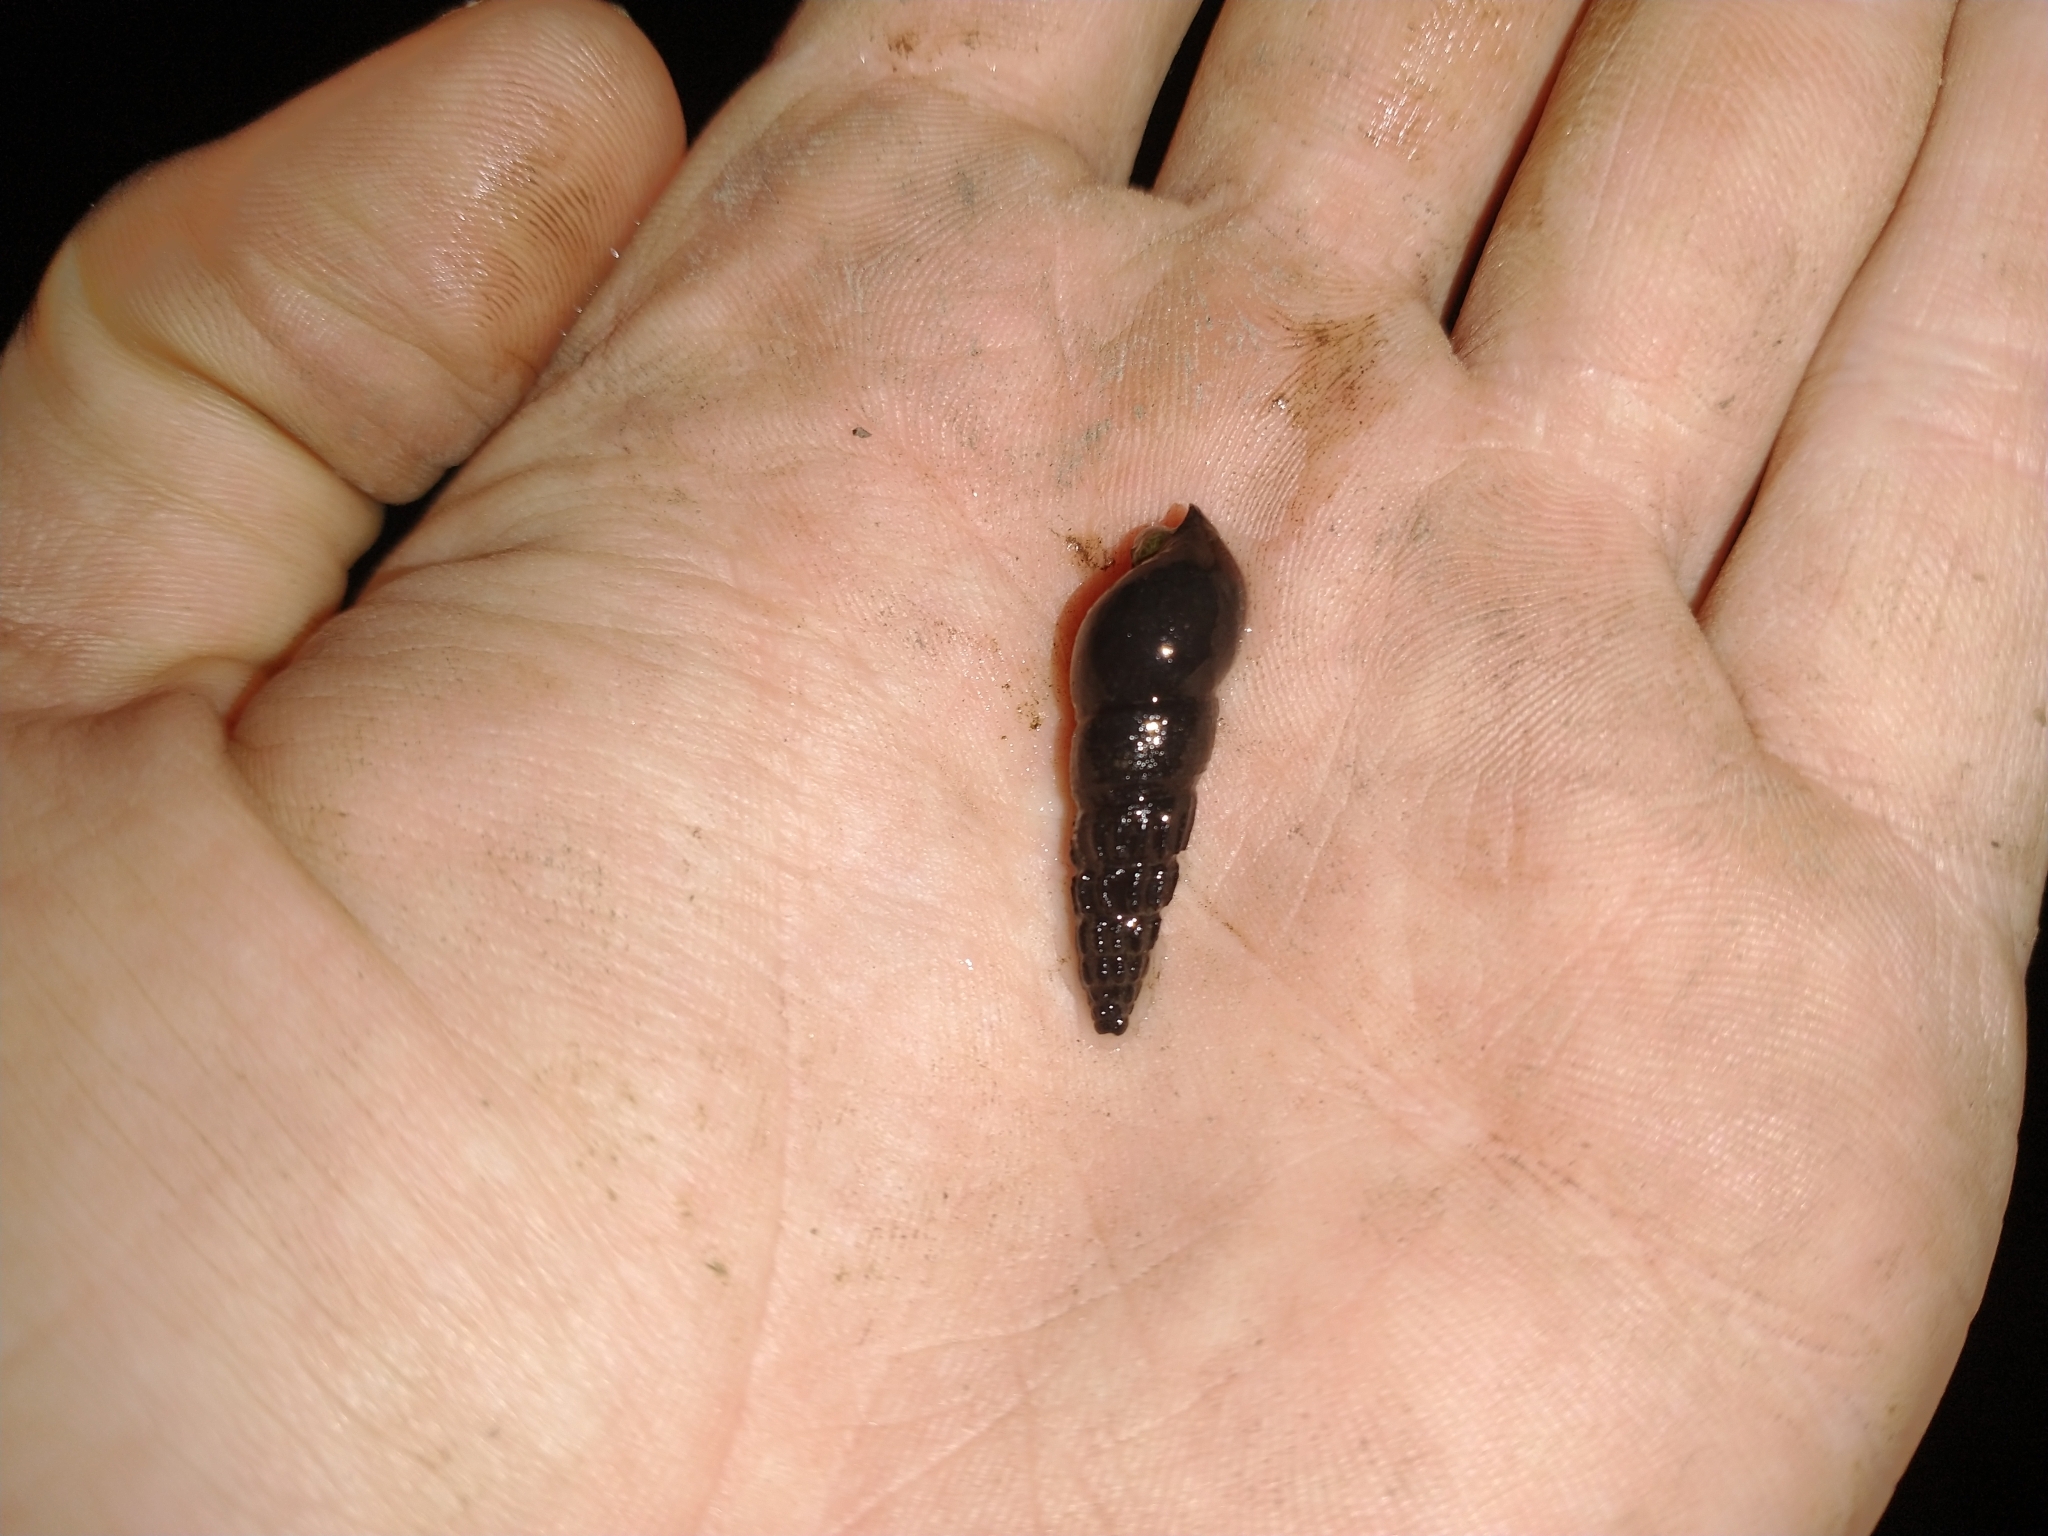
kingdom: Animalia
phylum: Mollusca
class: Gastropoda
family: Semisulcospiridae
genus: Juga
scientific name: Juga plicifera
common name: Pleated juga
